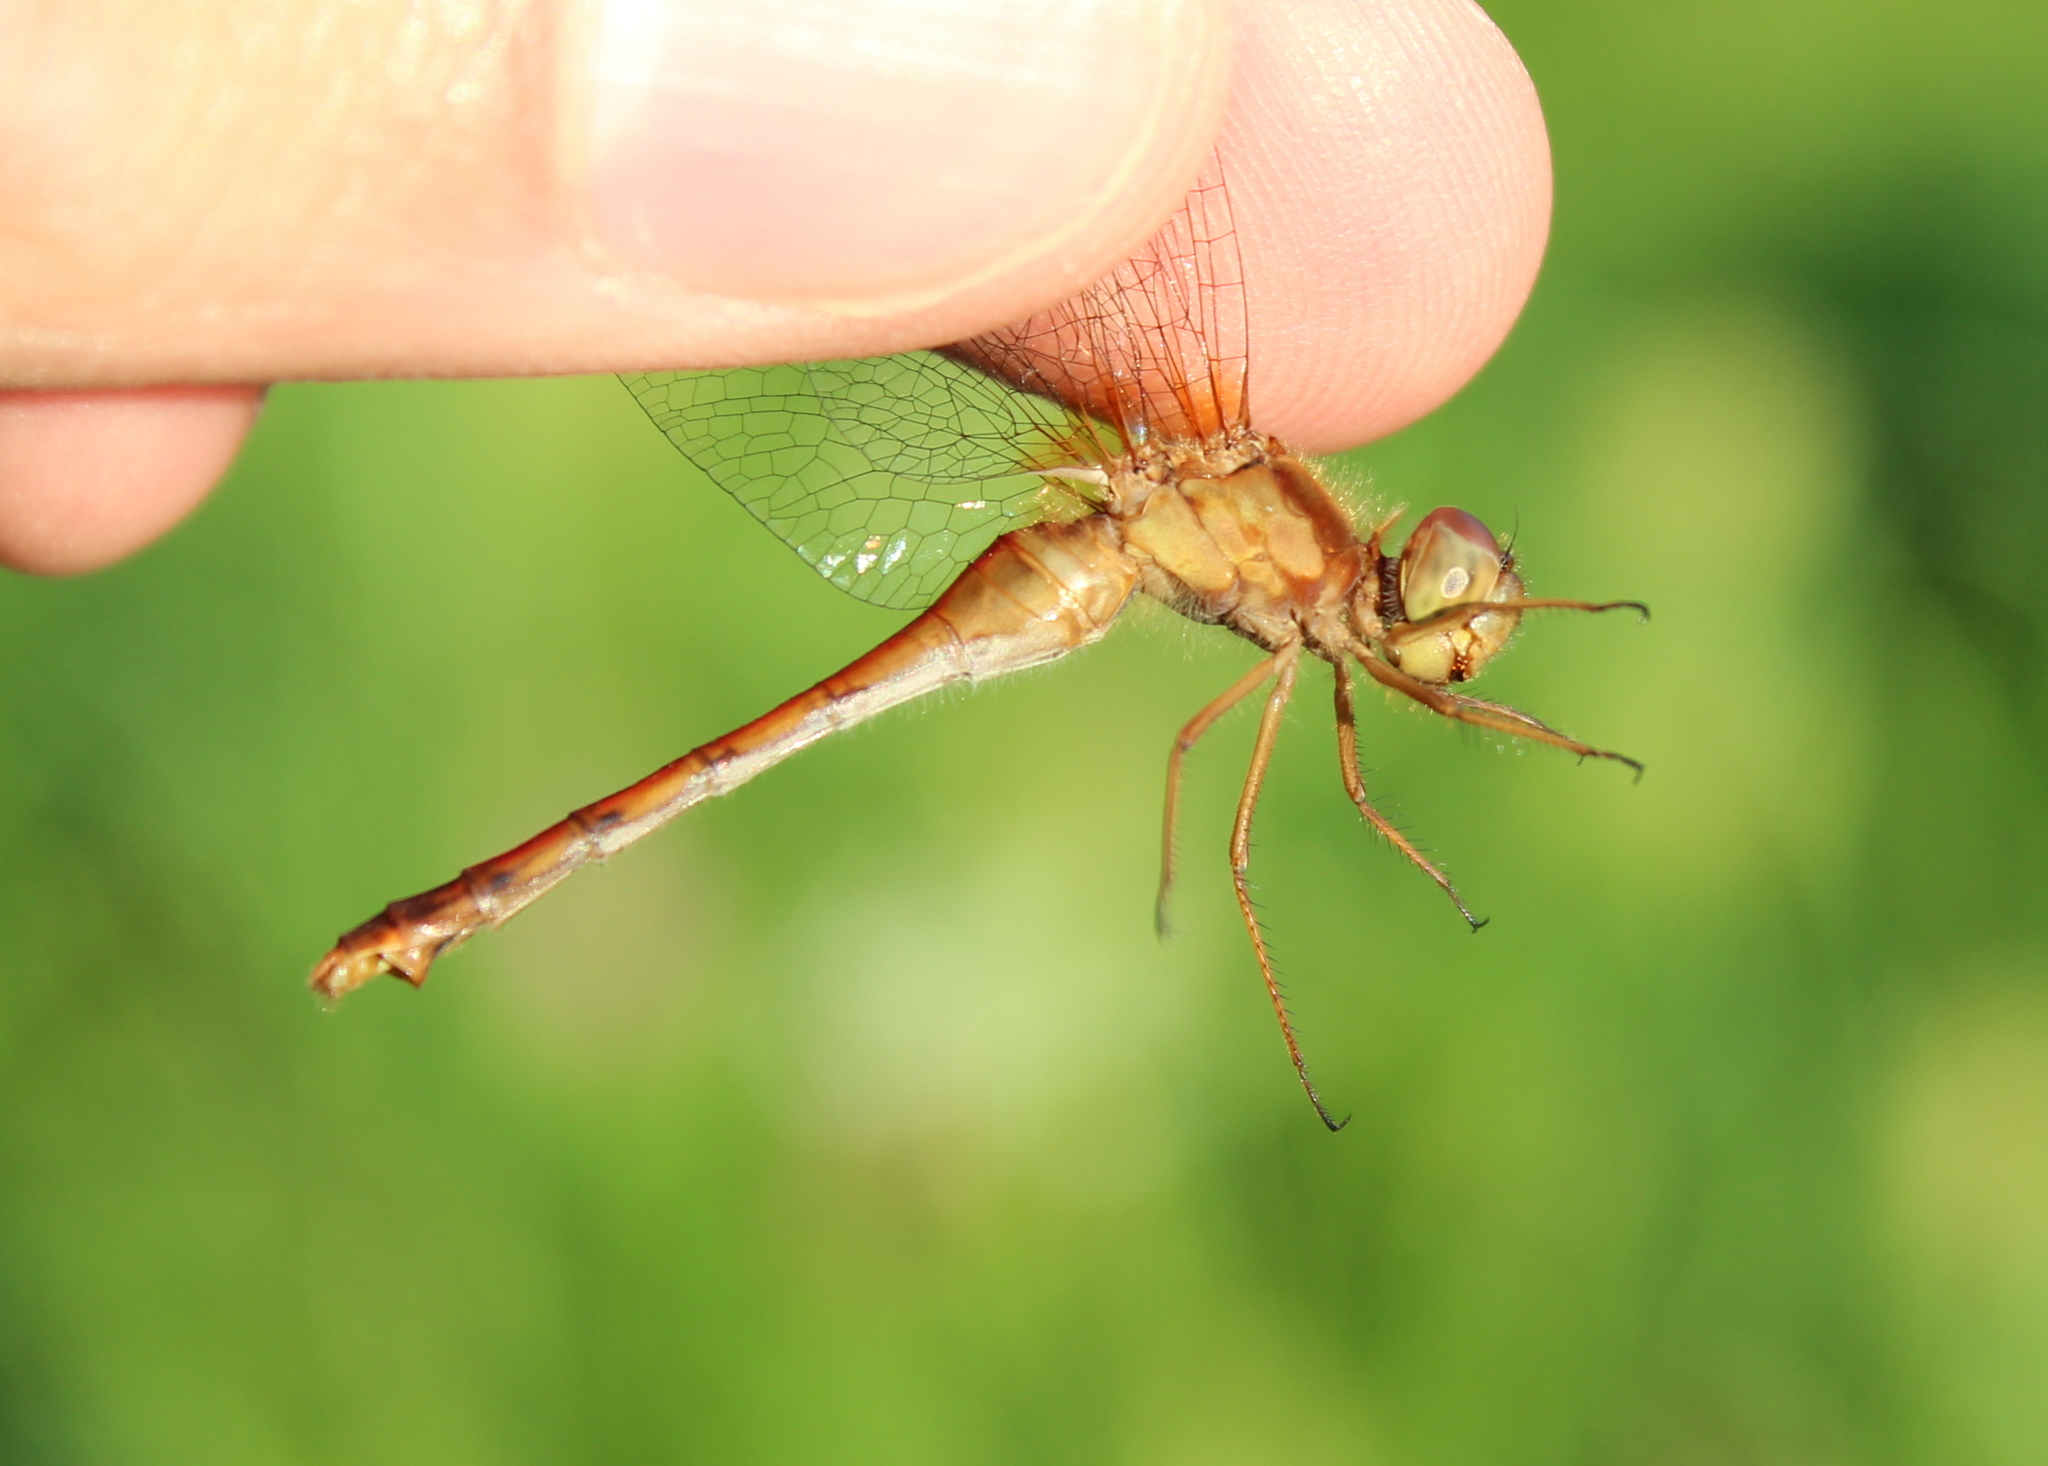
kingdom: Animalia
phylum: Arthropoda
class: Insecta
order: Odonata
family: Libellulidae
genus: Sympetrum
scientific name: Sympetrum vicinum
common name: Autumn meadowhawk
